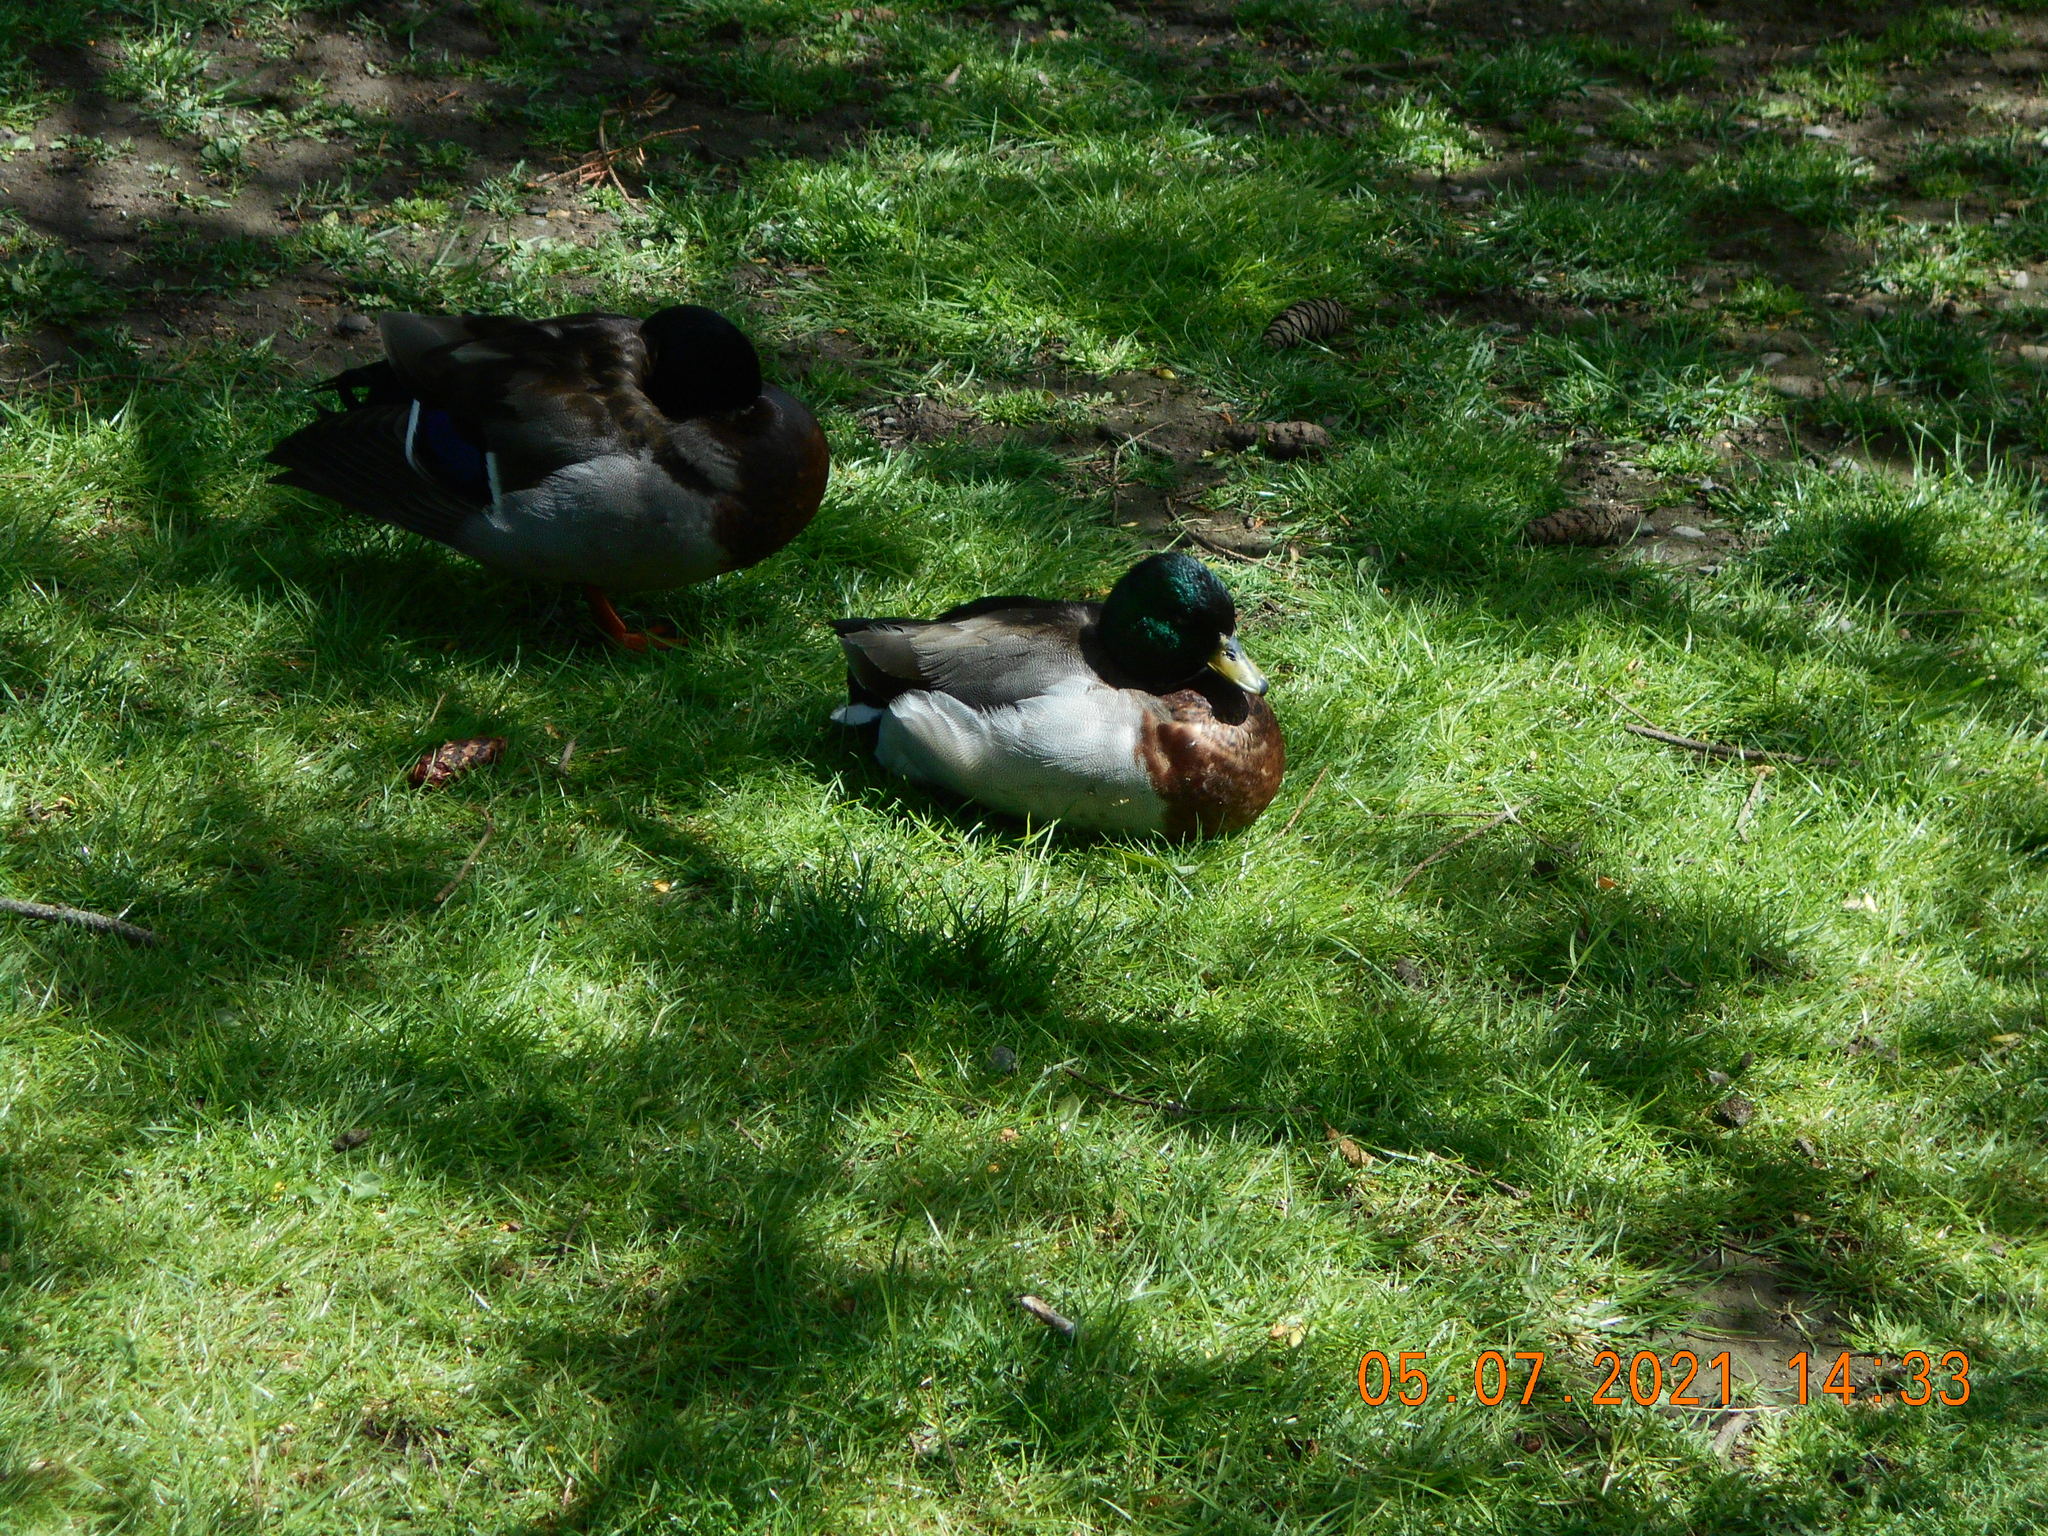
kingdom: Animalia
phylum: Chordata
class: Aves
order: Anseriformes
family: Anatidae
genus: Anas
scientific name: Anas platyrhynchos
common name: Mallard
